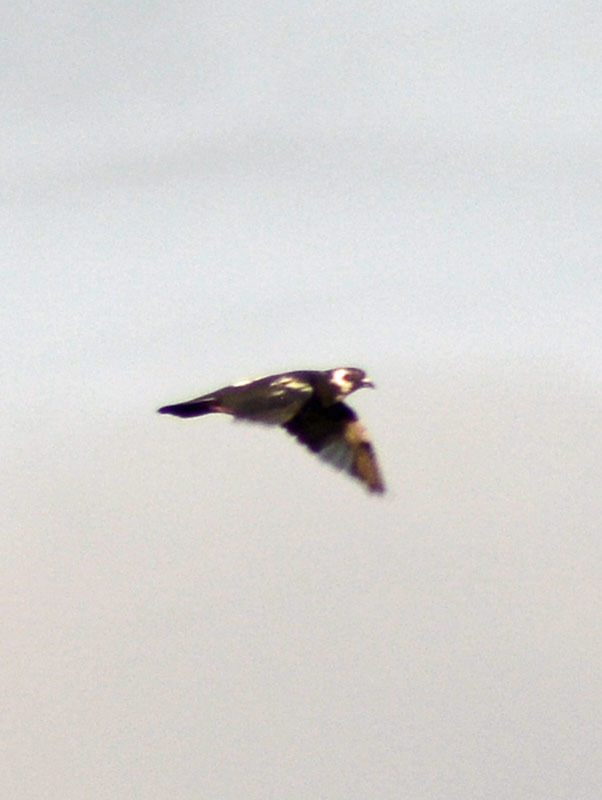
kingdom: Animalia
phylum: Chordata
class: Aves
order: Columbiformes
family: Columbidae
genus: Columba
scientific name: Columba livia
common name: Rock pigeon
